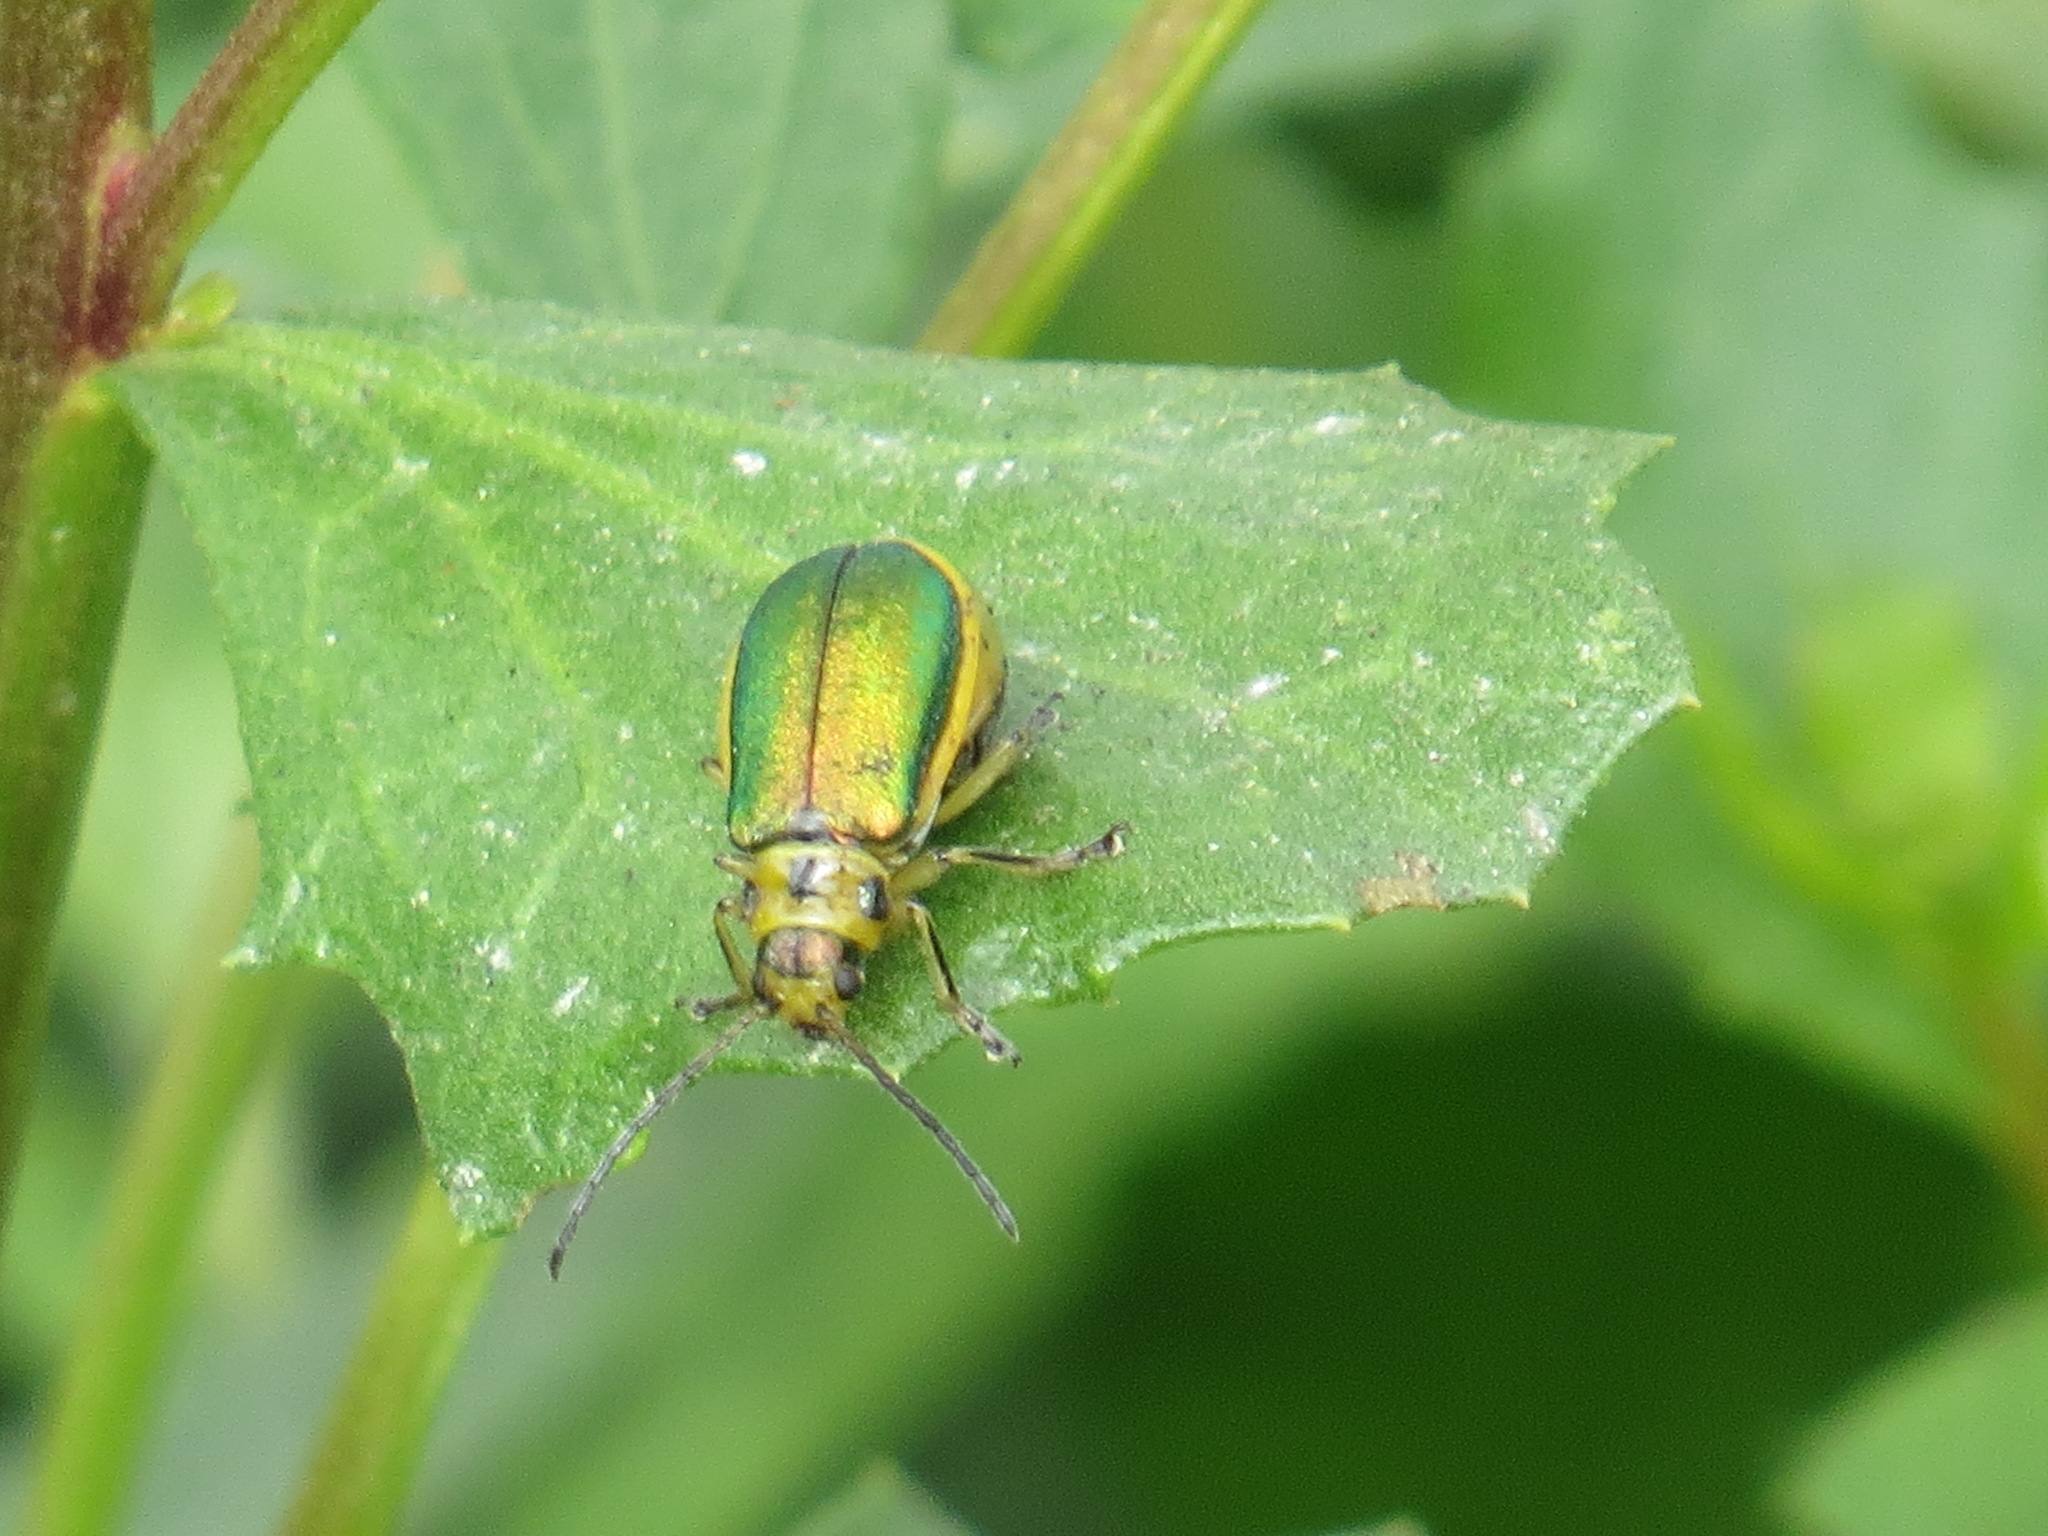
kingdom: Animalia
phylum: Arthropoda
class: Insecta
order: Coleoptera
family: Chrysomelidae
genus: Trirhabda
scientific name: Trirhabda flavolimbata
